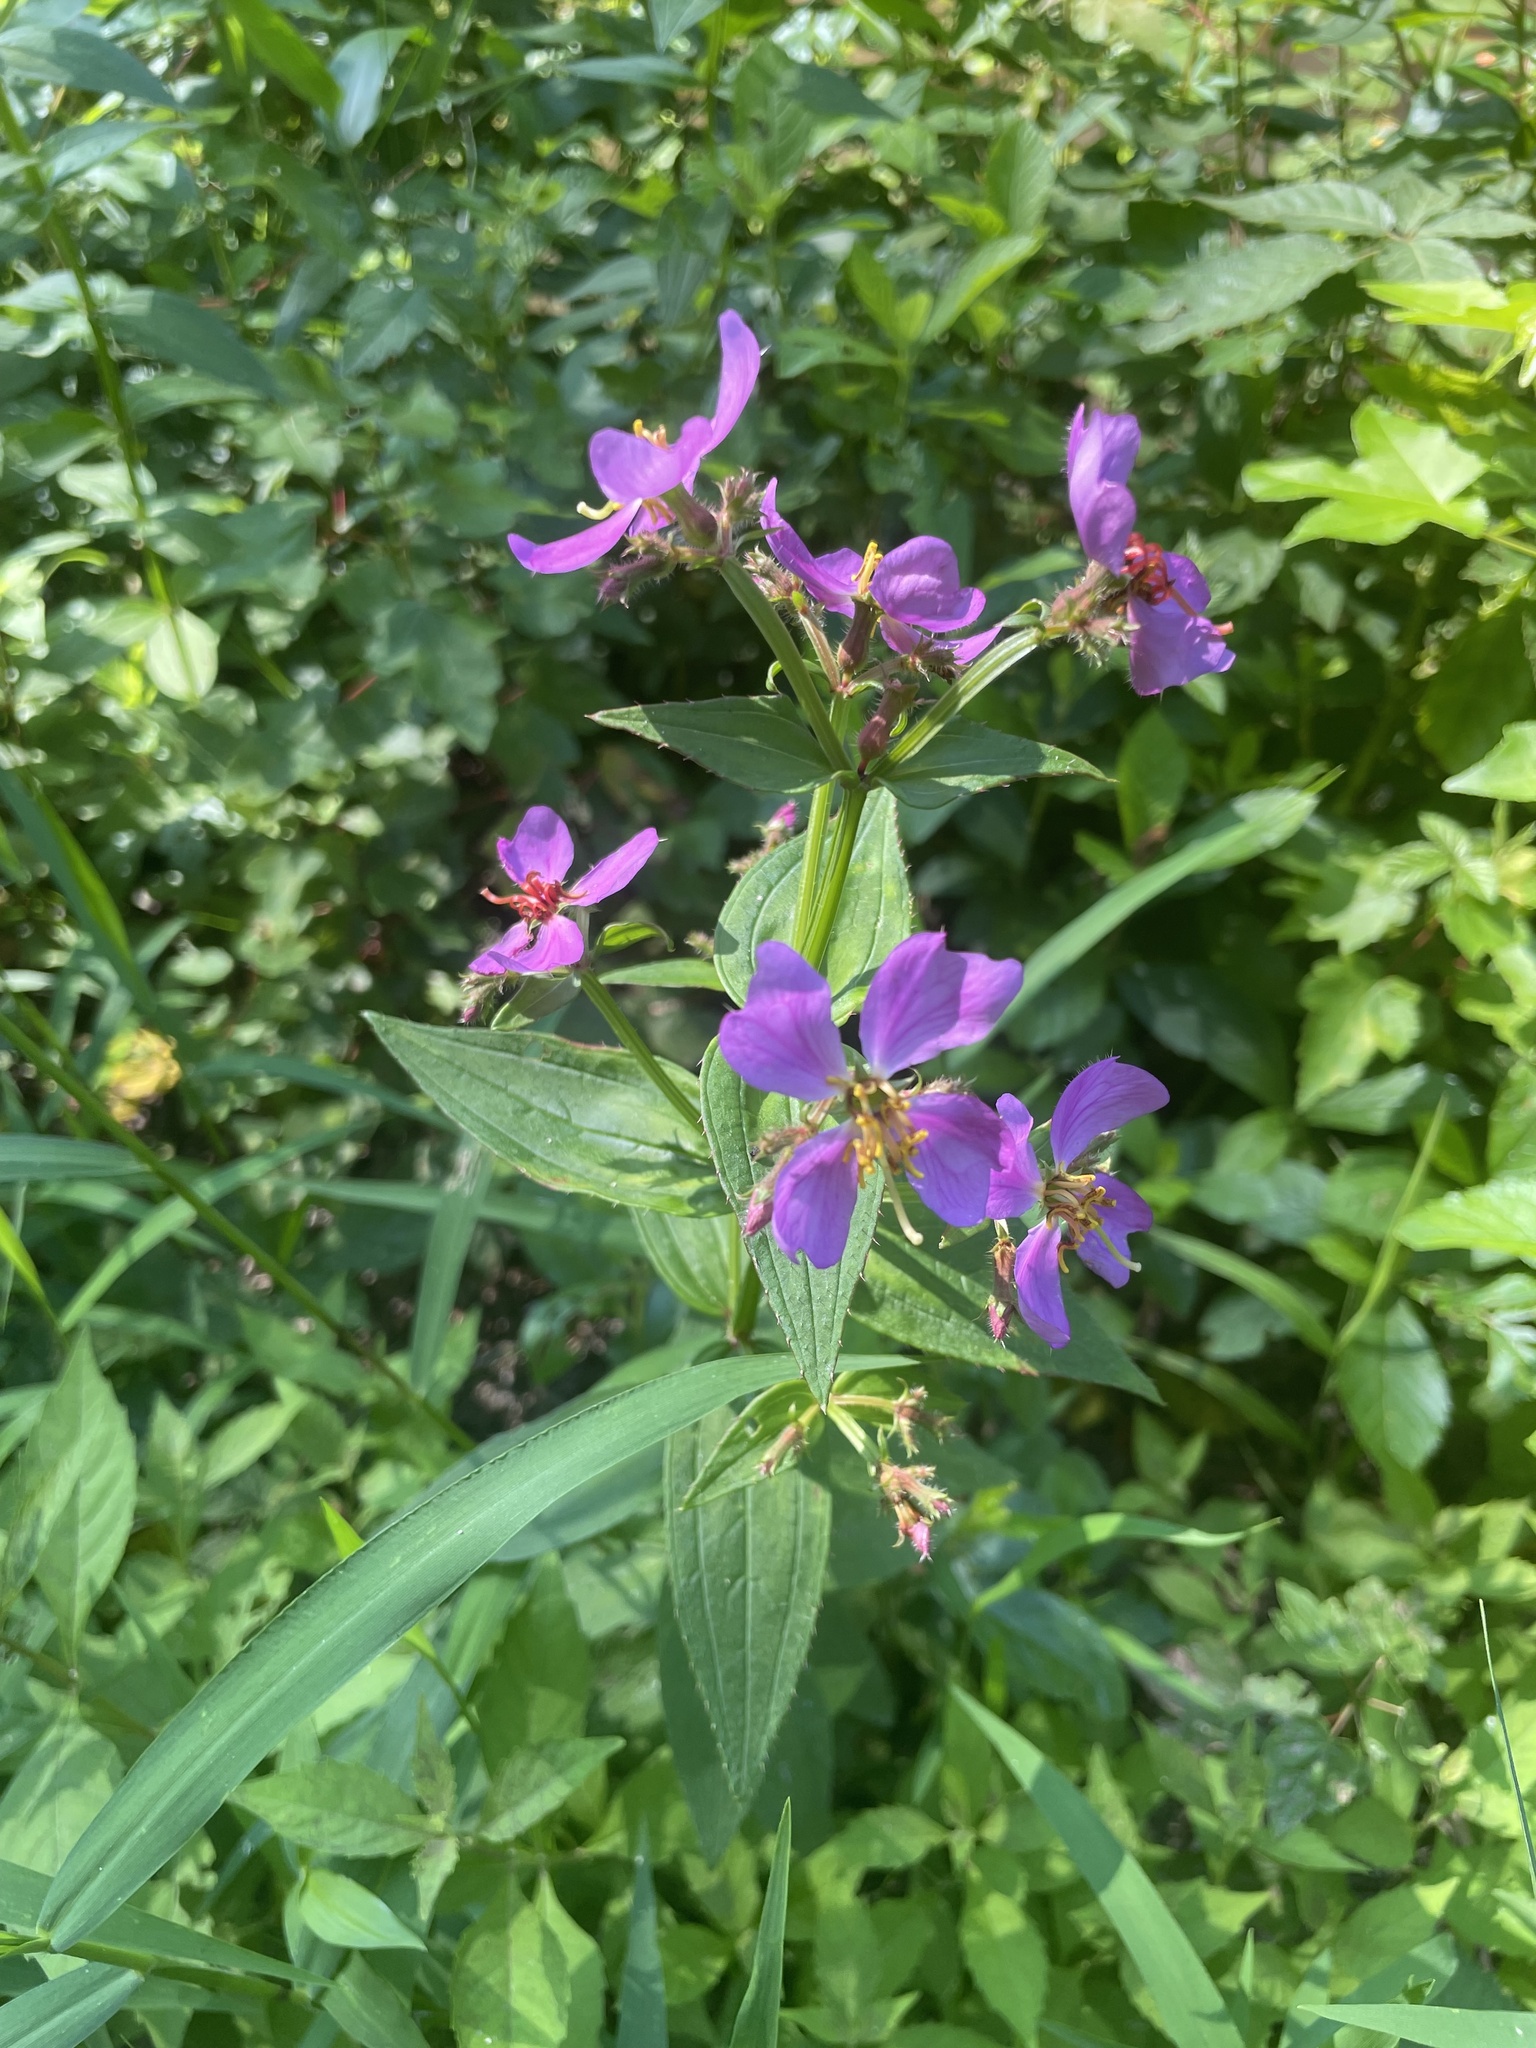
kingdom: Plantae
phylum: Tracheophyta
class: Magnoliopsida
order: Myrtales
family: Melastomataceae
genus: Rhexia
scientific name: Rhexia virginica
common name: Common meadow beauty
